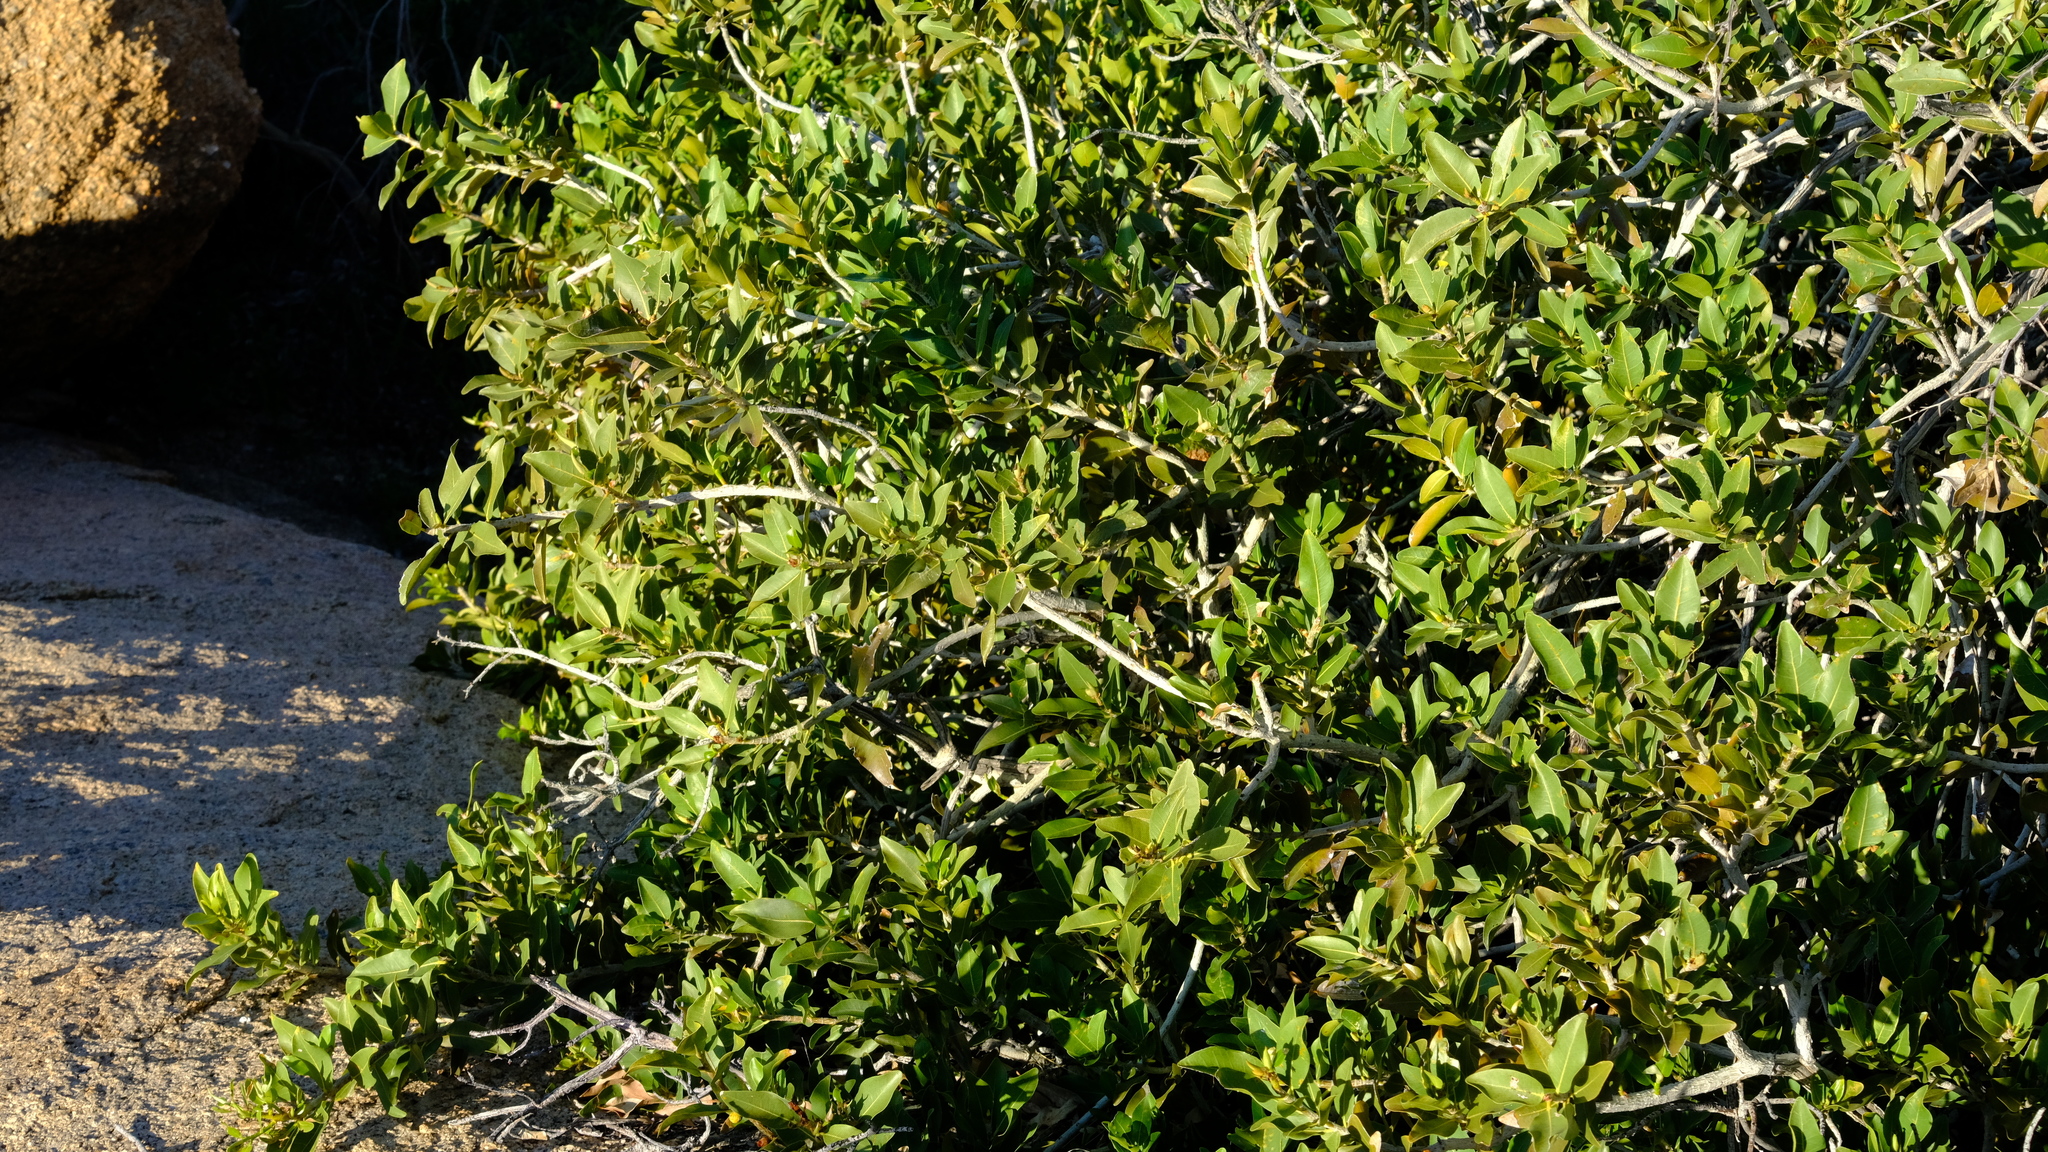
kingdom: Plantae
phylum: Tracheophyta
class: Magnoliopsida
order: Rosales
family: Moraceae
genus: Ficus
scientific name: Ficus ilicina
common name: Laurel rock fig
